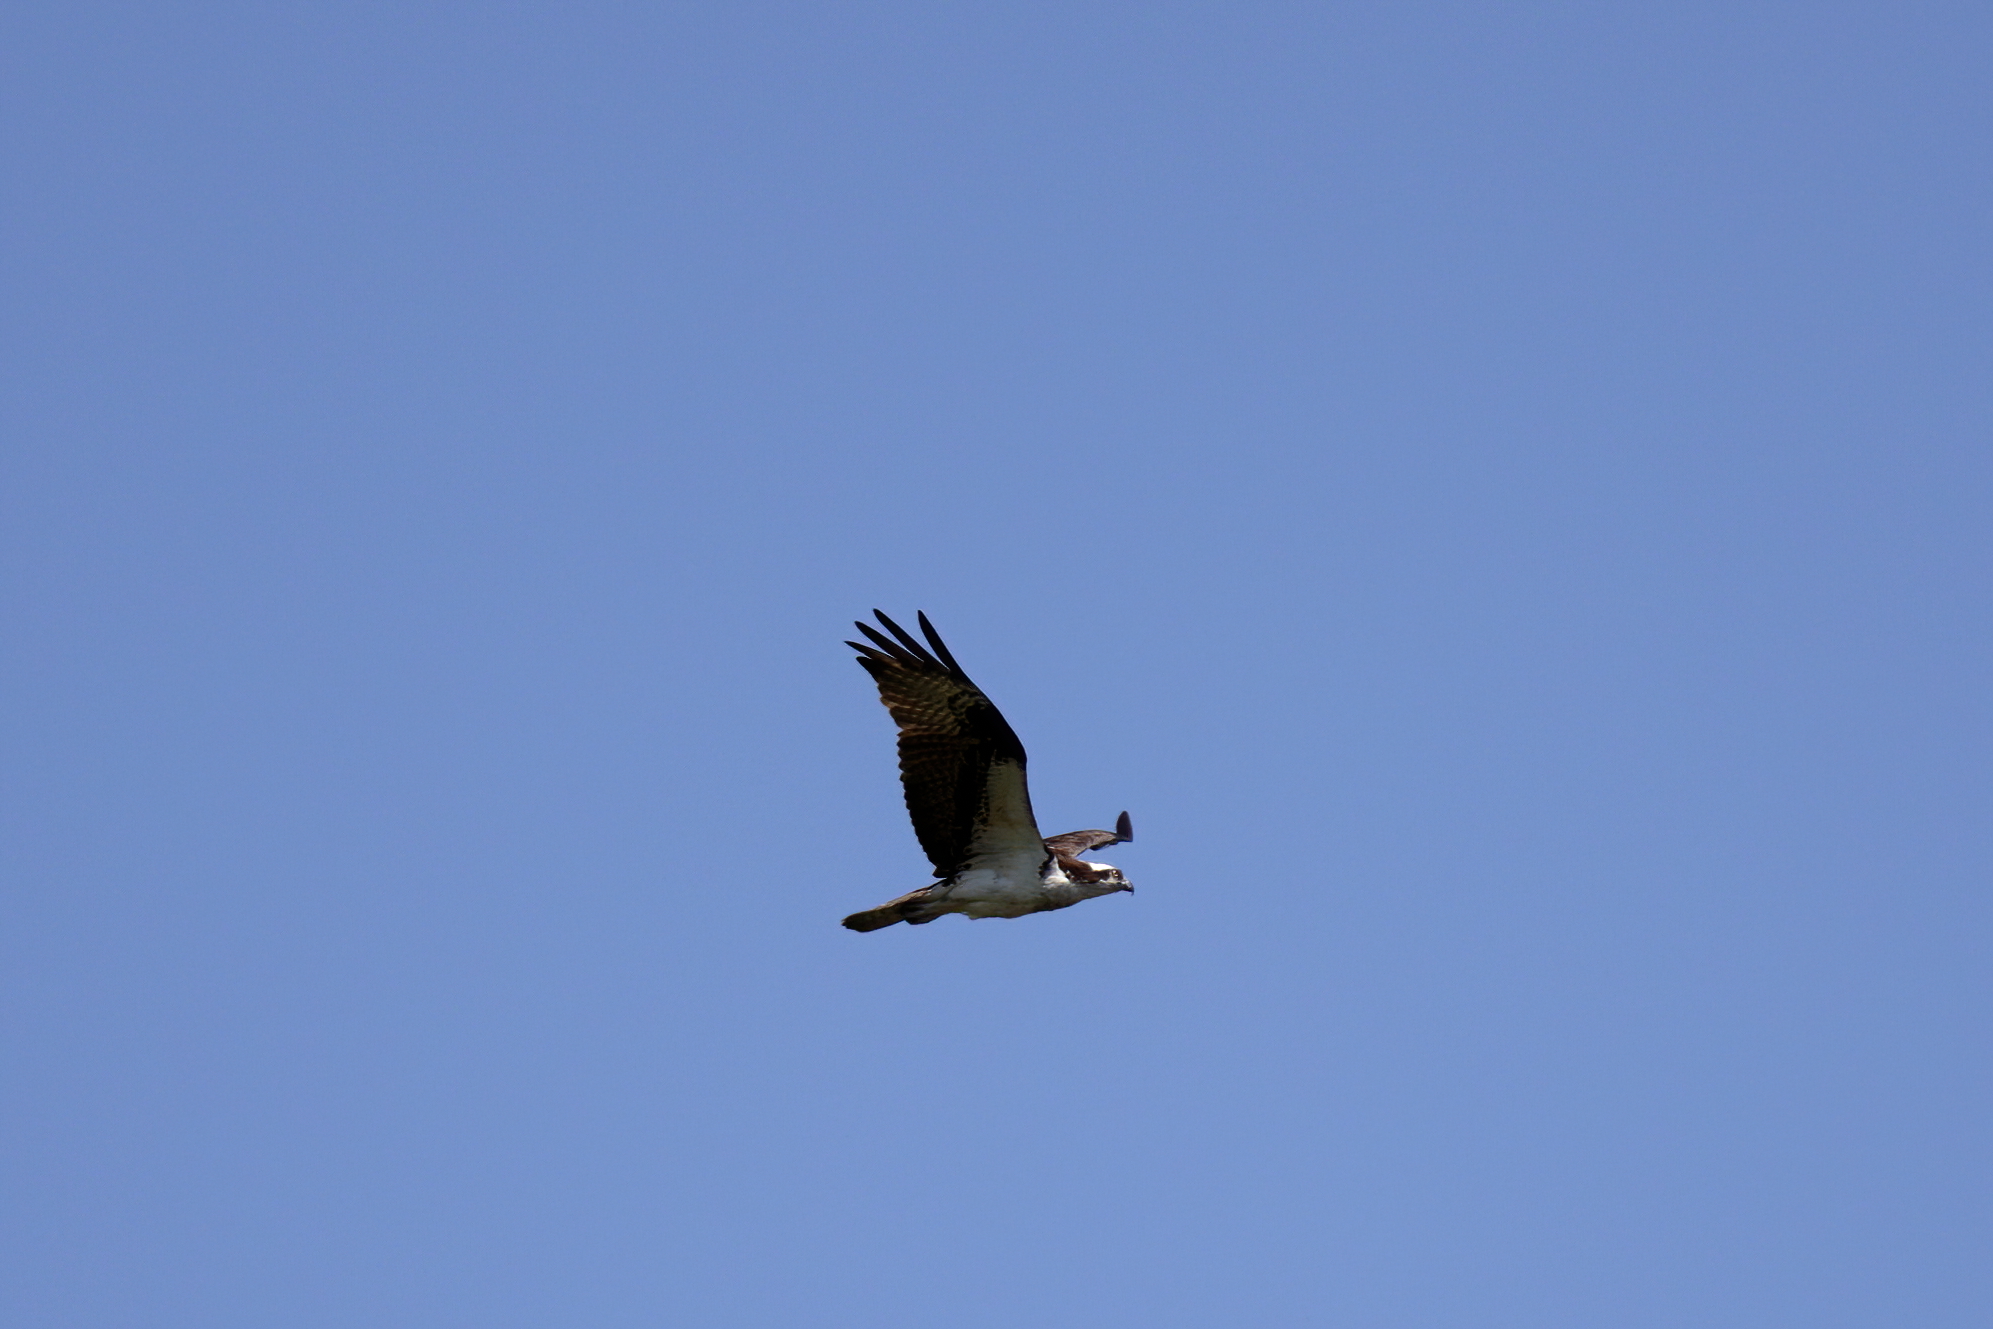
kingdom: Animalia
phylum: Chordata
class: Aves
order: Accipitriformes
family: Pandionidae
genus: Pandion
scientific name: Pandion haliaetus
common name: Osprey
